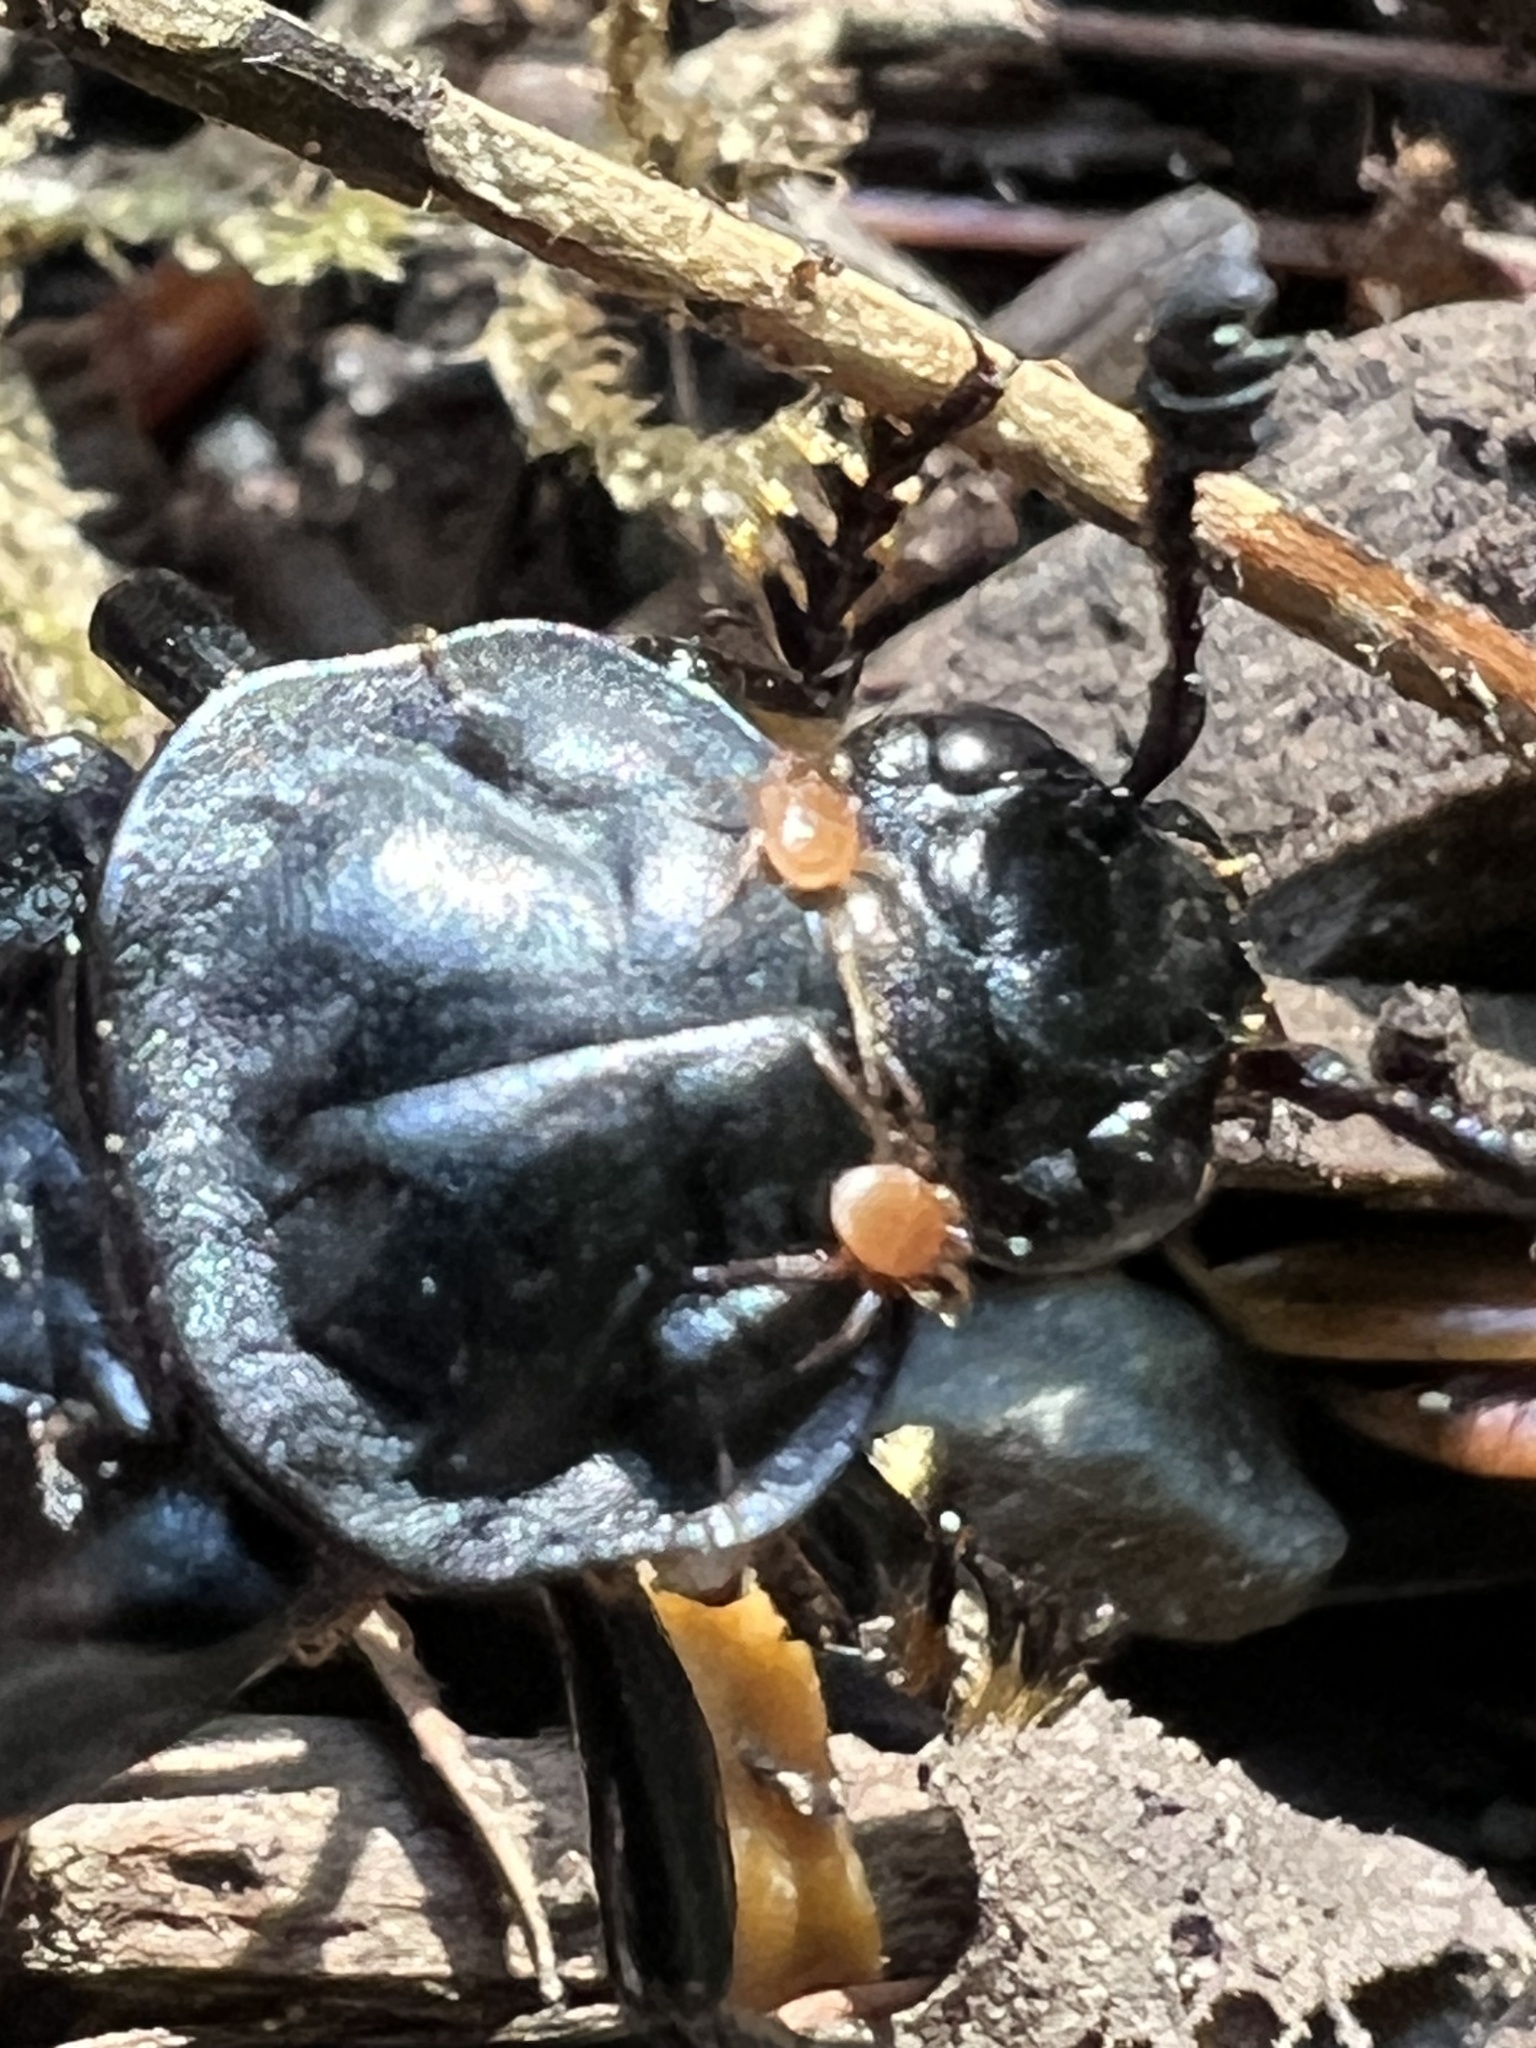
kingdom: Animalia
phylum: Arthropoda
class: Insecta
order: Coleoptera
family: Staphylinidae
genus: Nicrophorus
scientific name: Nicrophorus defodiens
